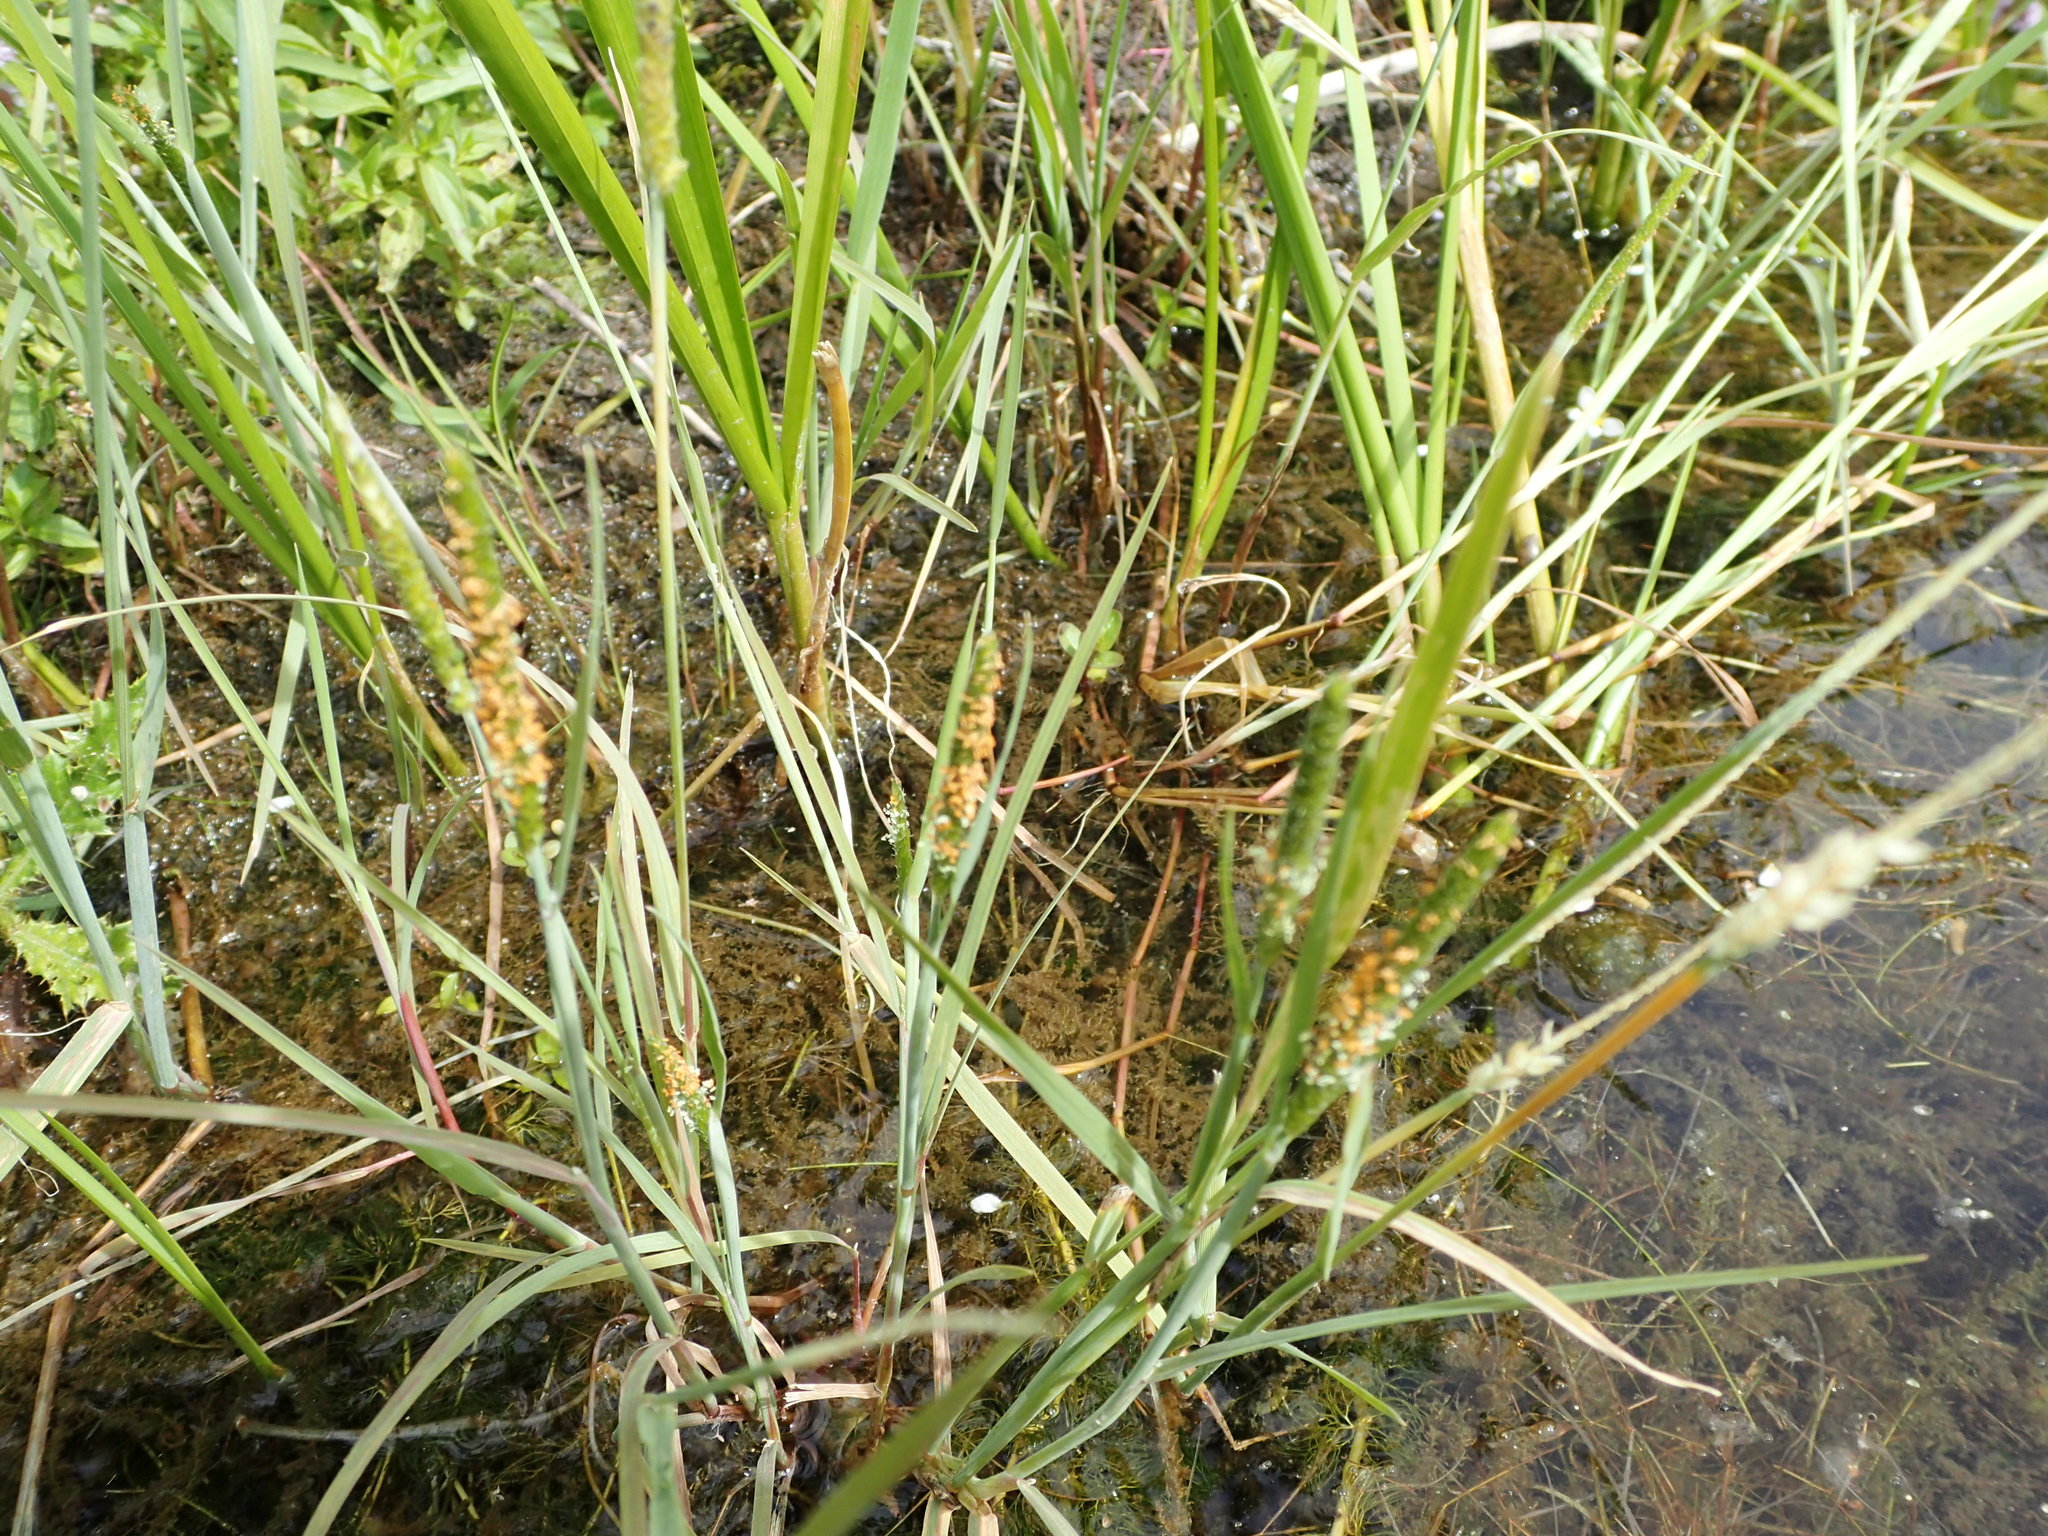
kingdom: Plantae
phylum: Tracheophyta
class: Liliopsida
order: Poales
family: Poaceae
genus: Alopecurus
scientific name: Alopecurus aequalis
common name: Orange foxtail
